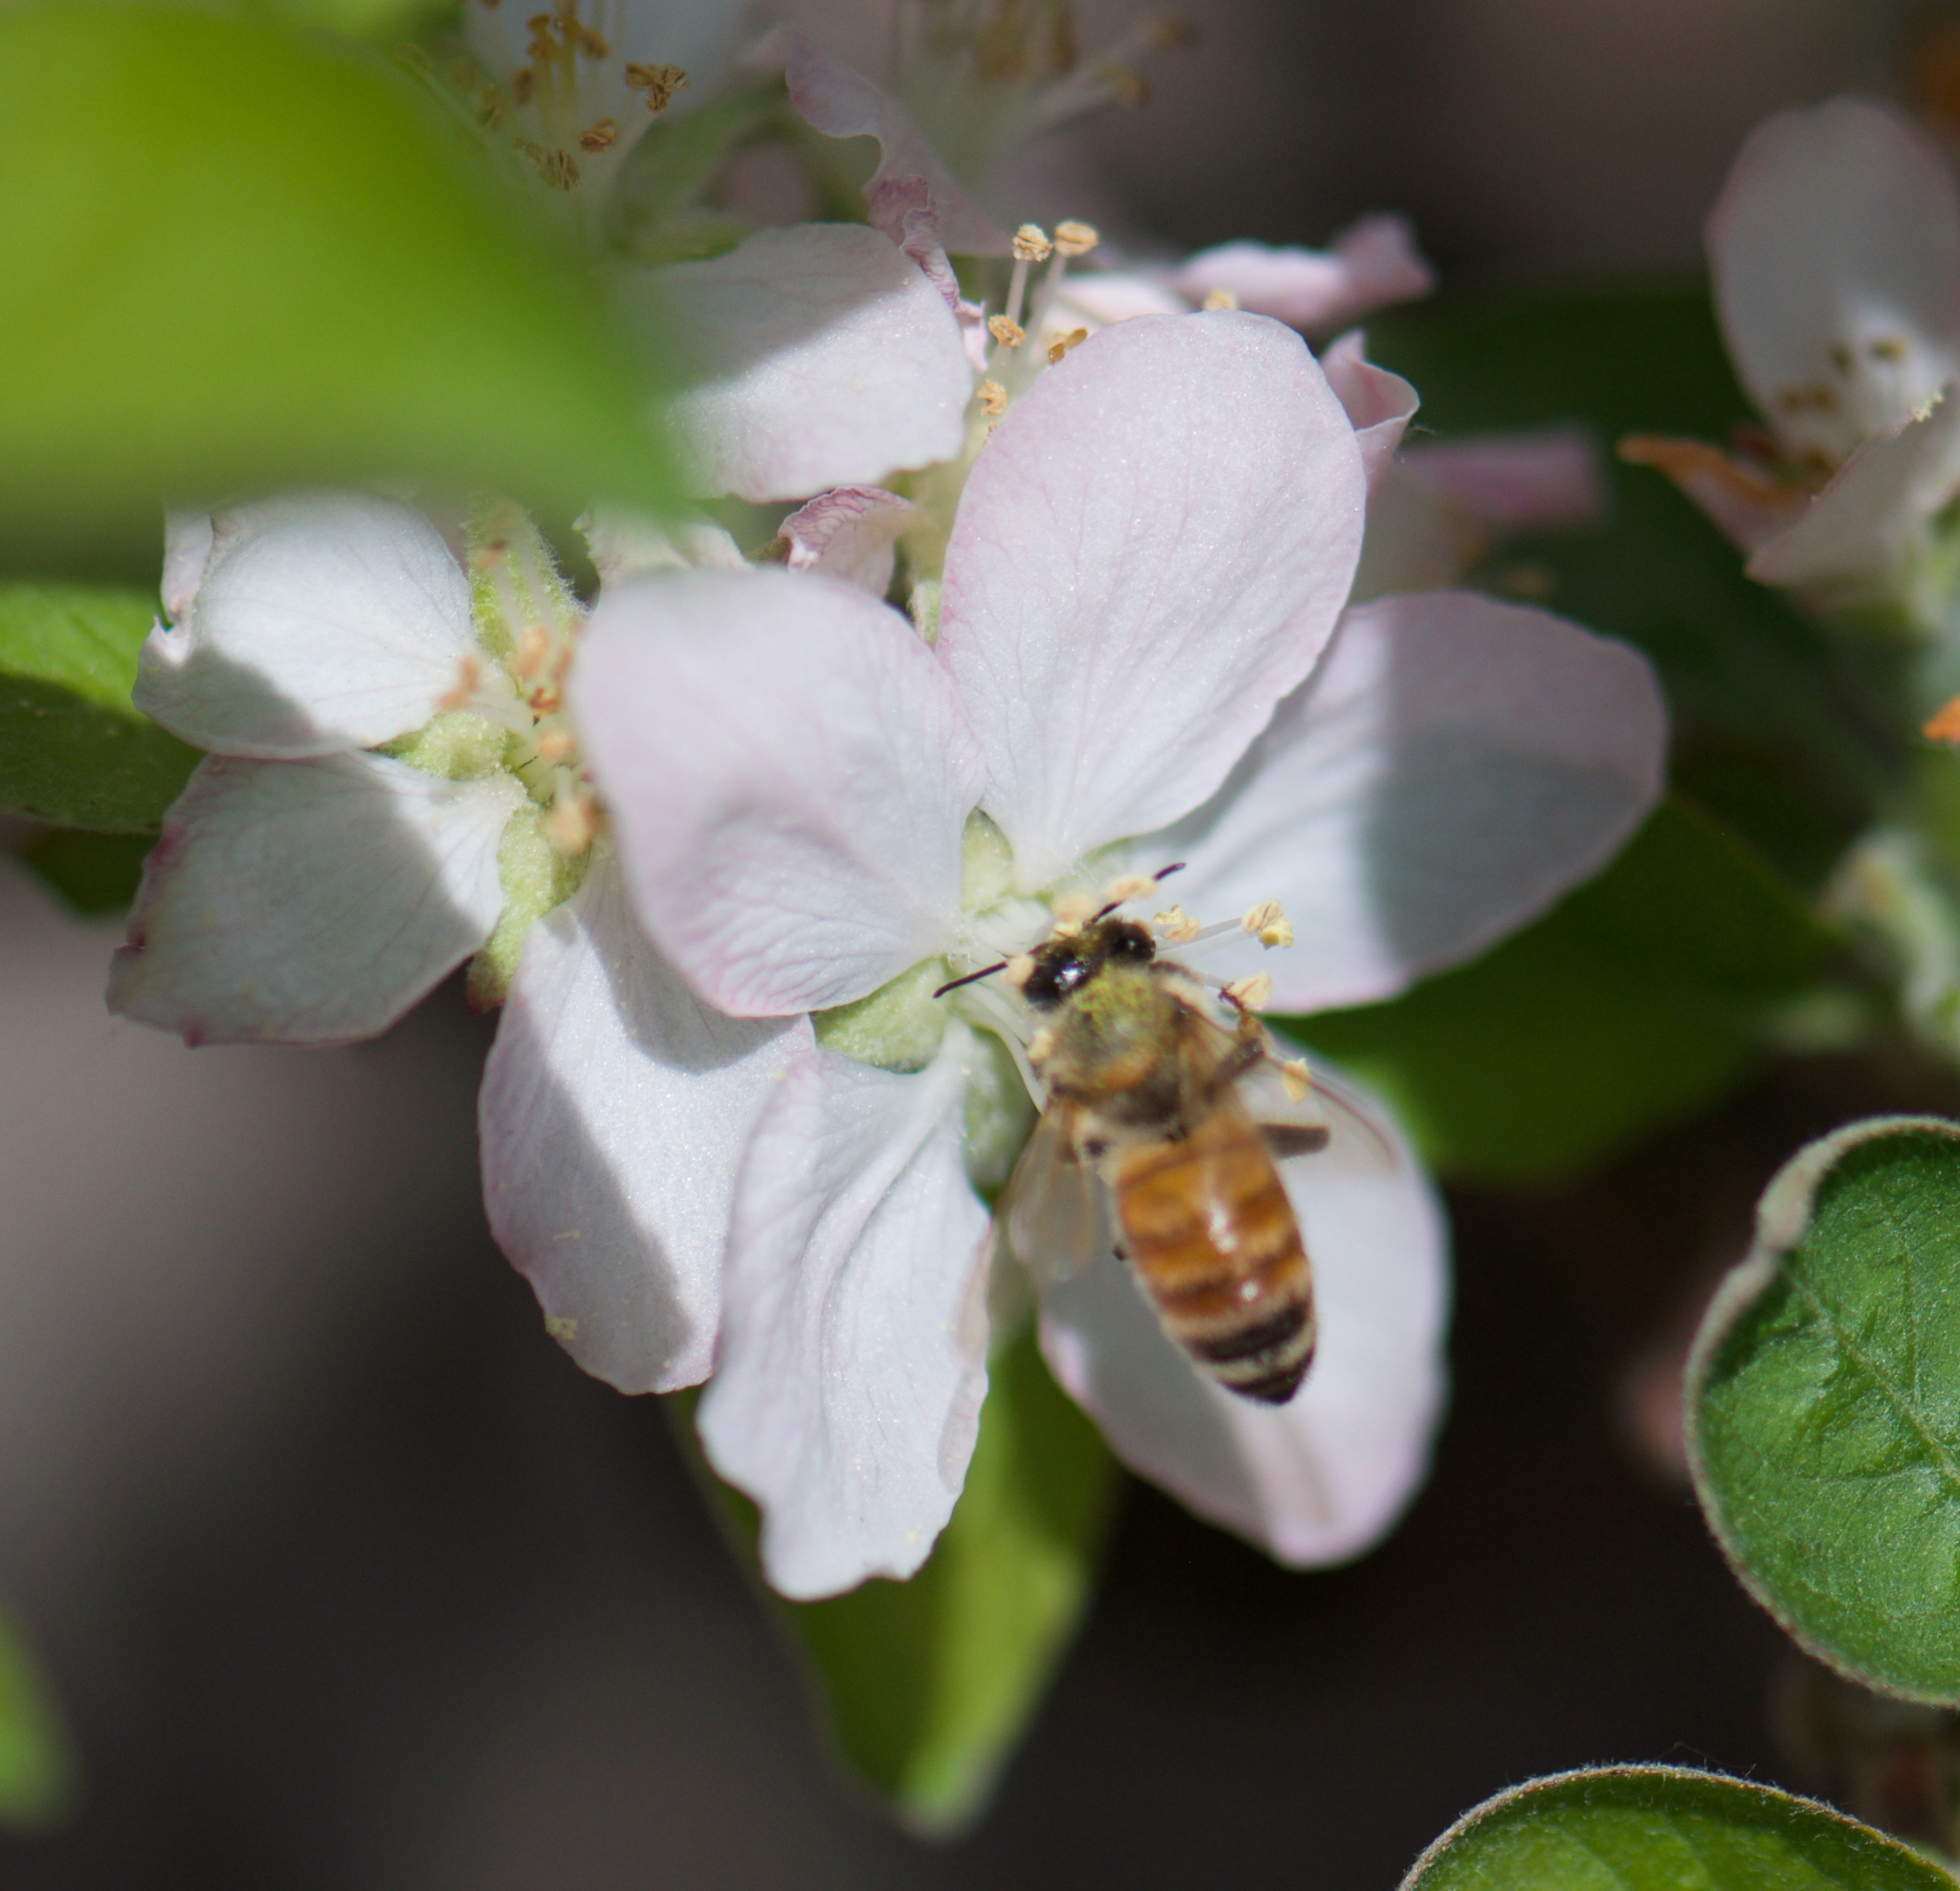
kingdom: Animalia
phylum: Arthropoda
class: Insecta
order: Hymenoptera
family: Apidae
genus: Apis
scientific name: Apis mellifera
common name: Honey bee
